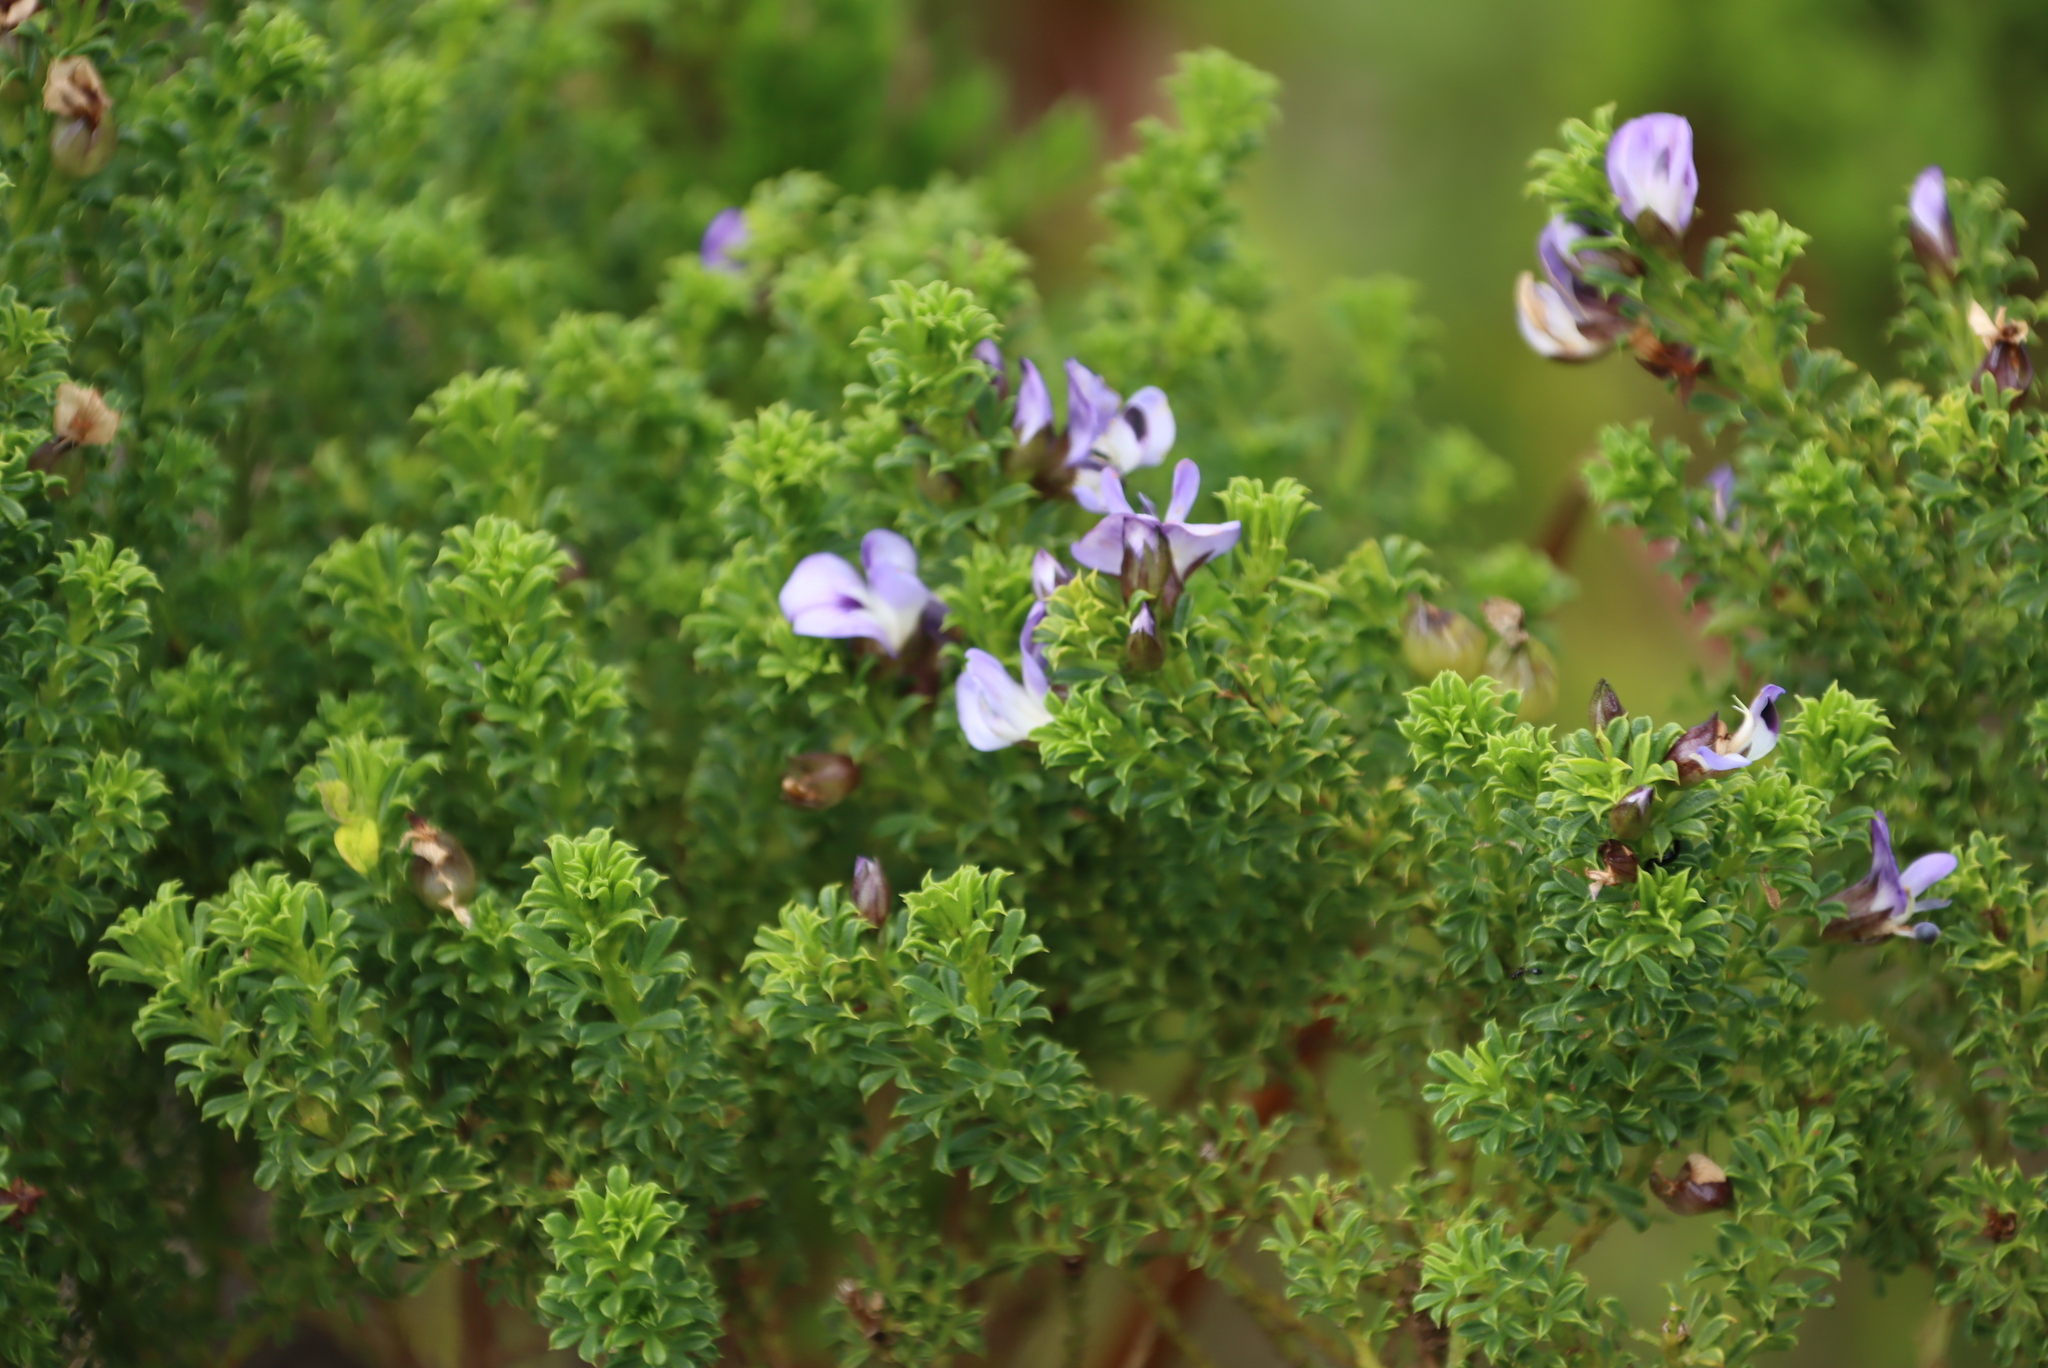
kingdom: Plantae
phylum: Tracheophyta
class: Magnoliopsida
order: Fabales
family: Fabaceae
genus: Psoralea
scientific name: Psoralea aculeata
